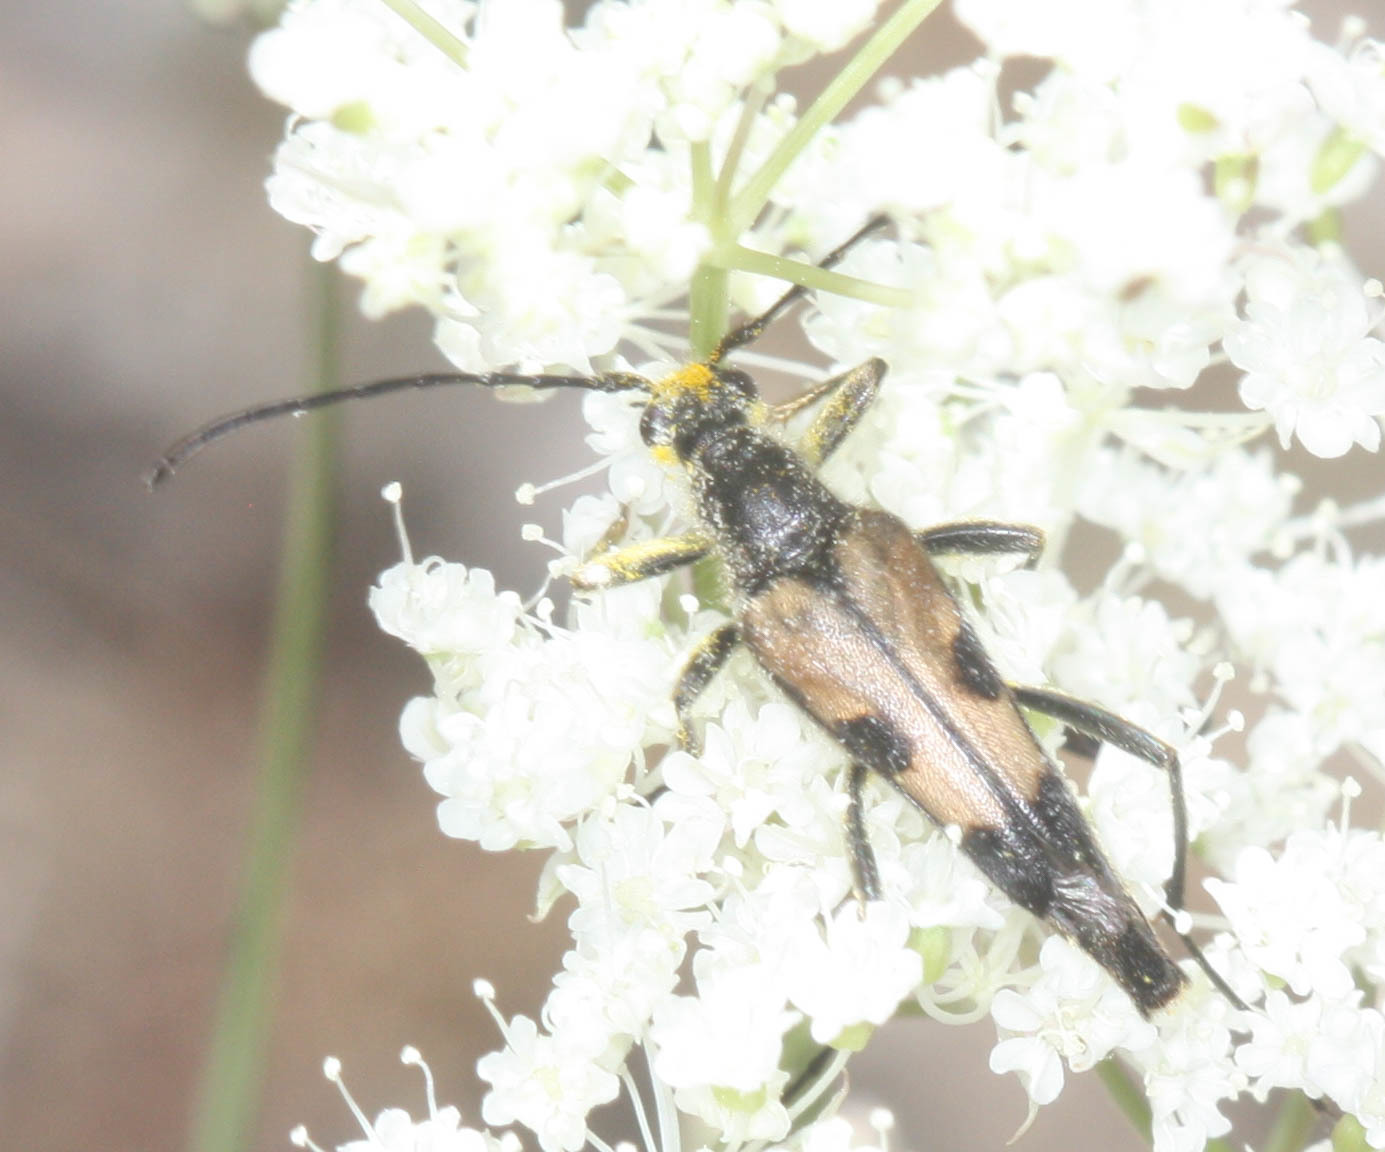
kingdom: Animalia
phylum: Arthropoda
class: Insecta
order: Coleoptera
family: Cerambycidae
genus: Etorofus
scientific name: Etorofus
